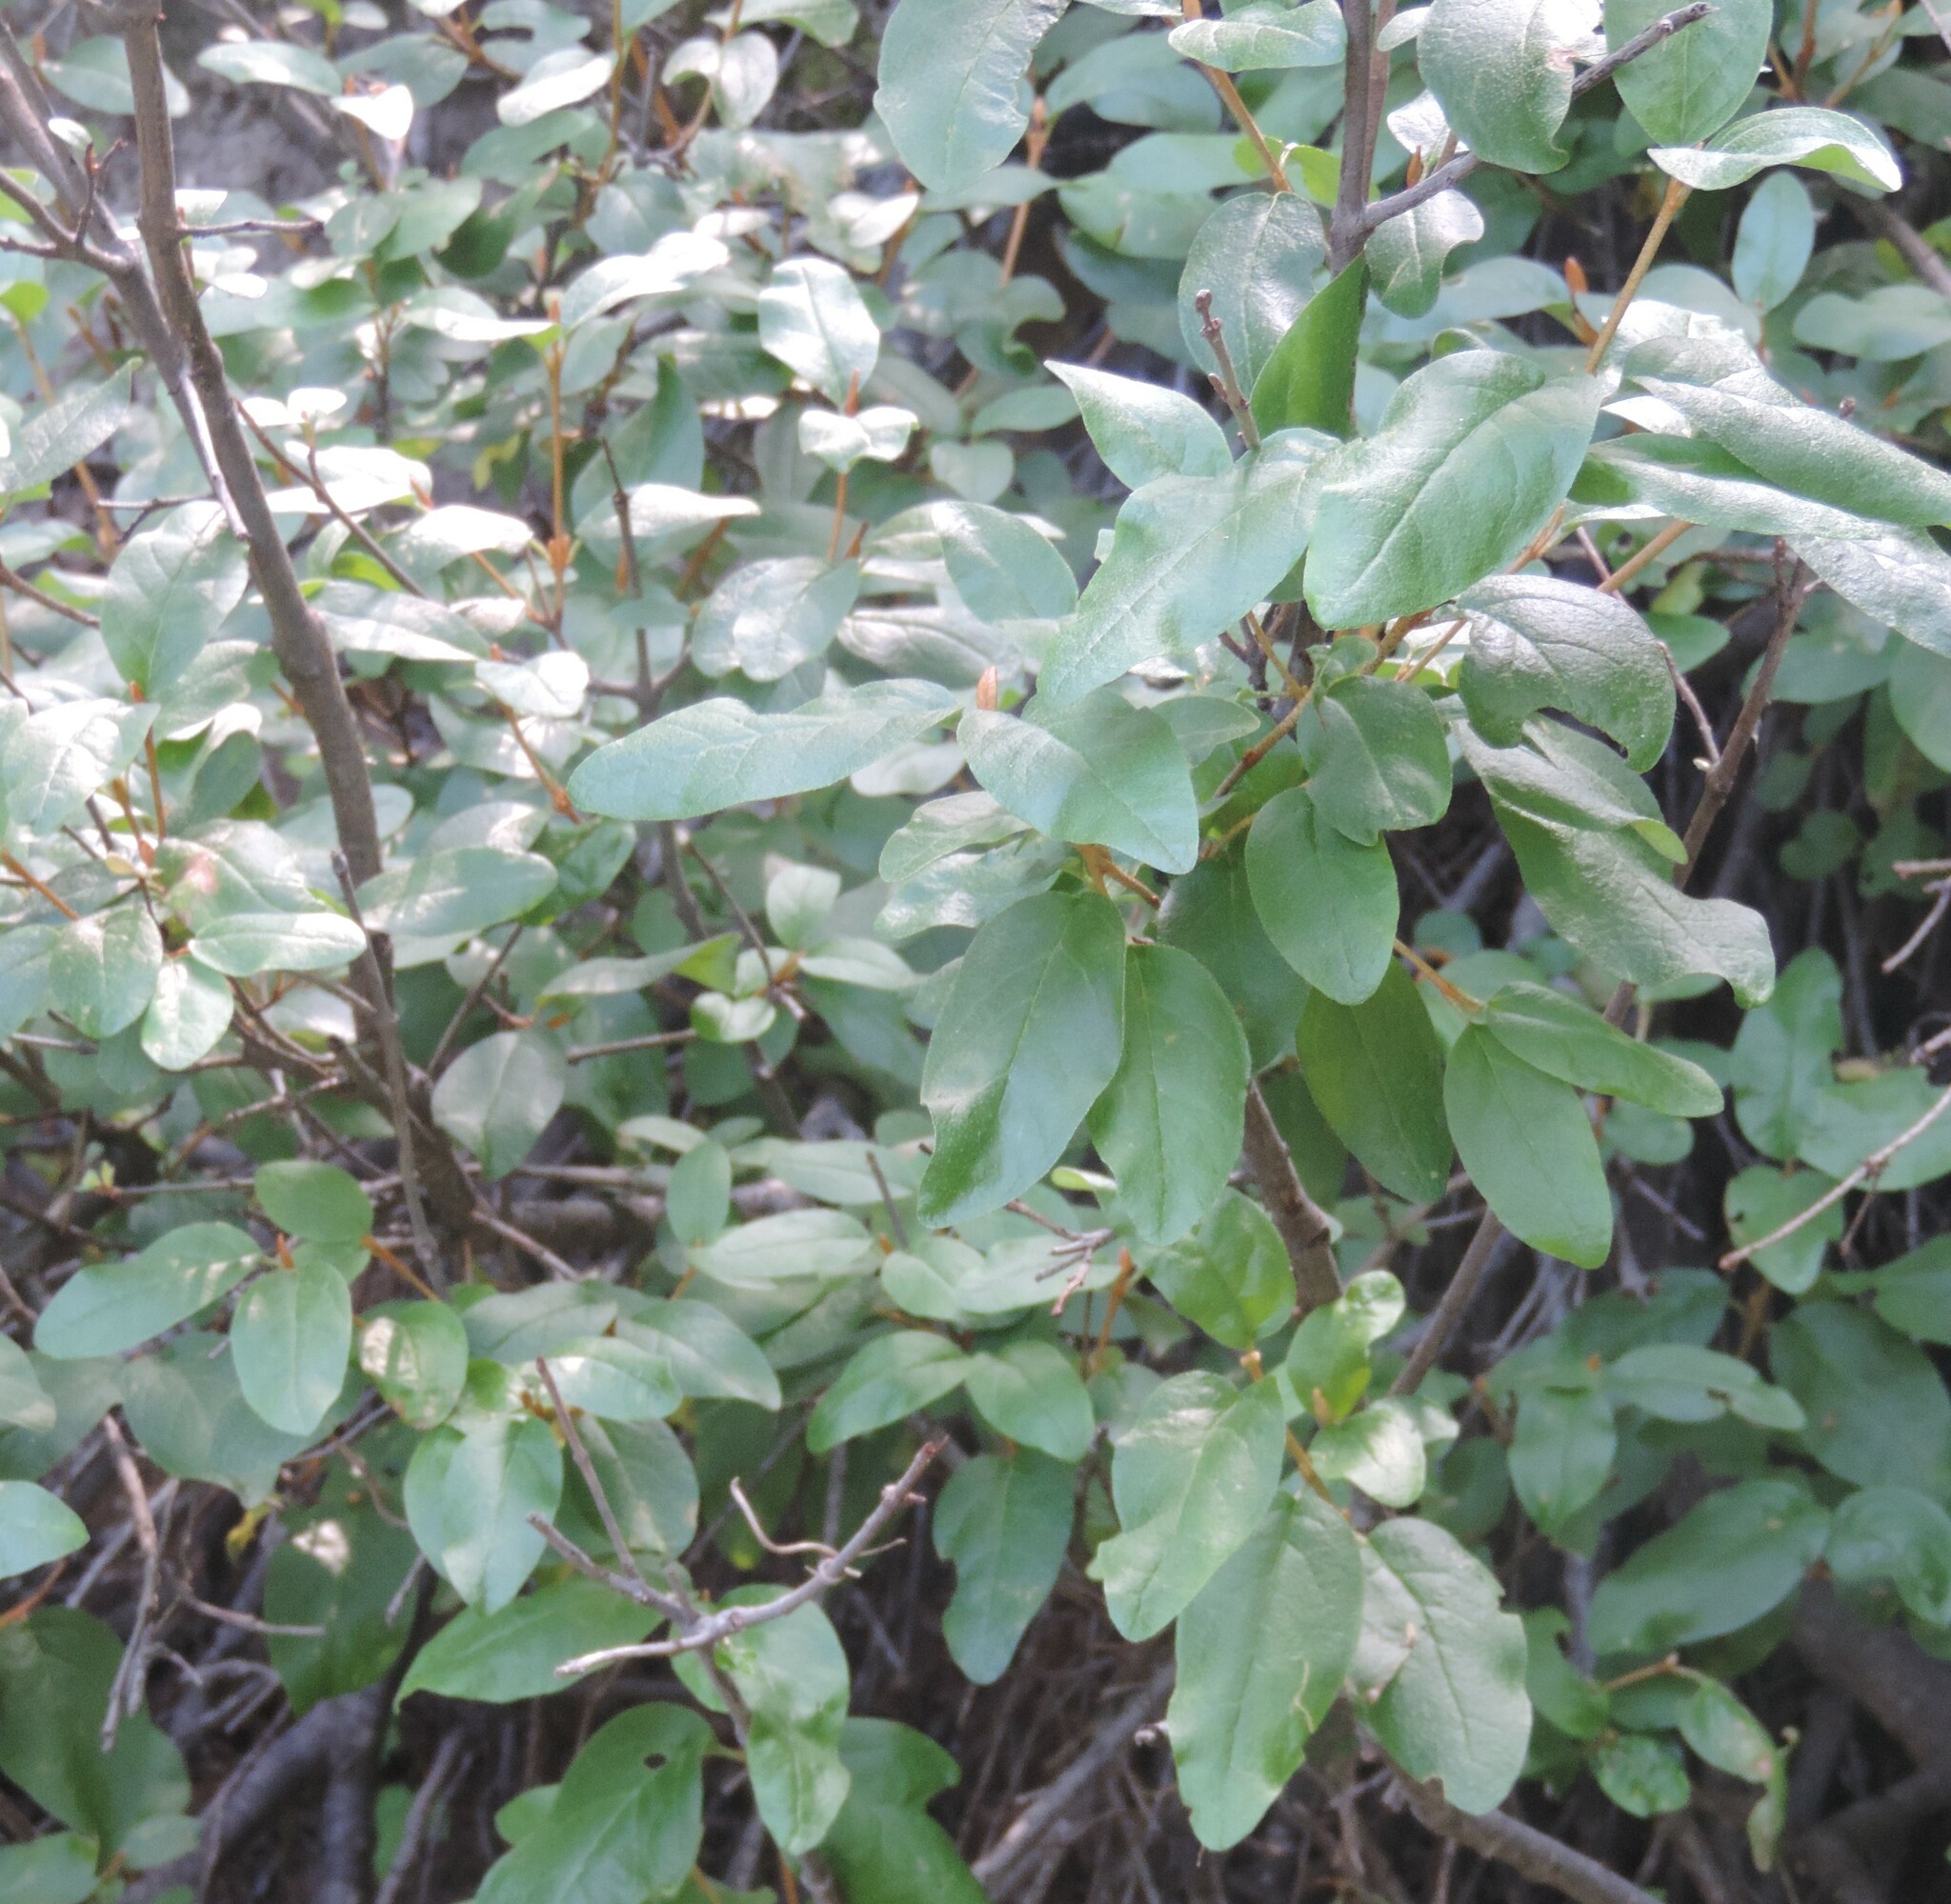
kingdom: Plantae
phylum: Tracheophyta
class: Magnoliopsida
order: Rosales
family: Elaeagnaceae
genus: Shepherdia
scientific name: Shepherdia canadensis
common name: Soapberry
